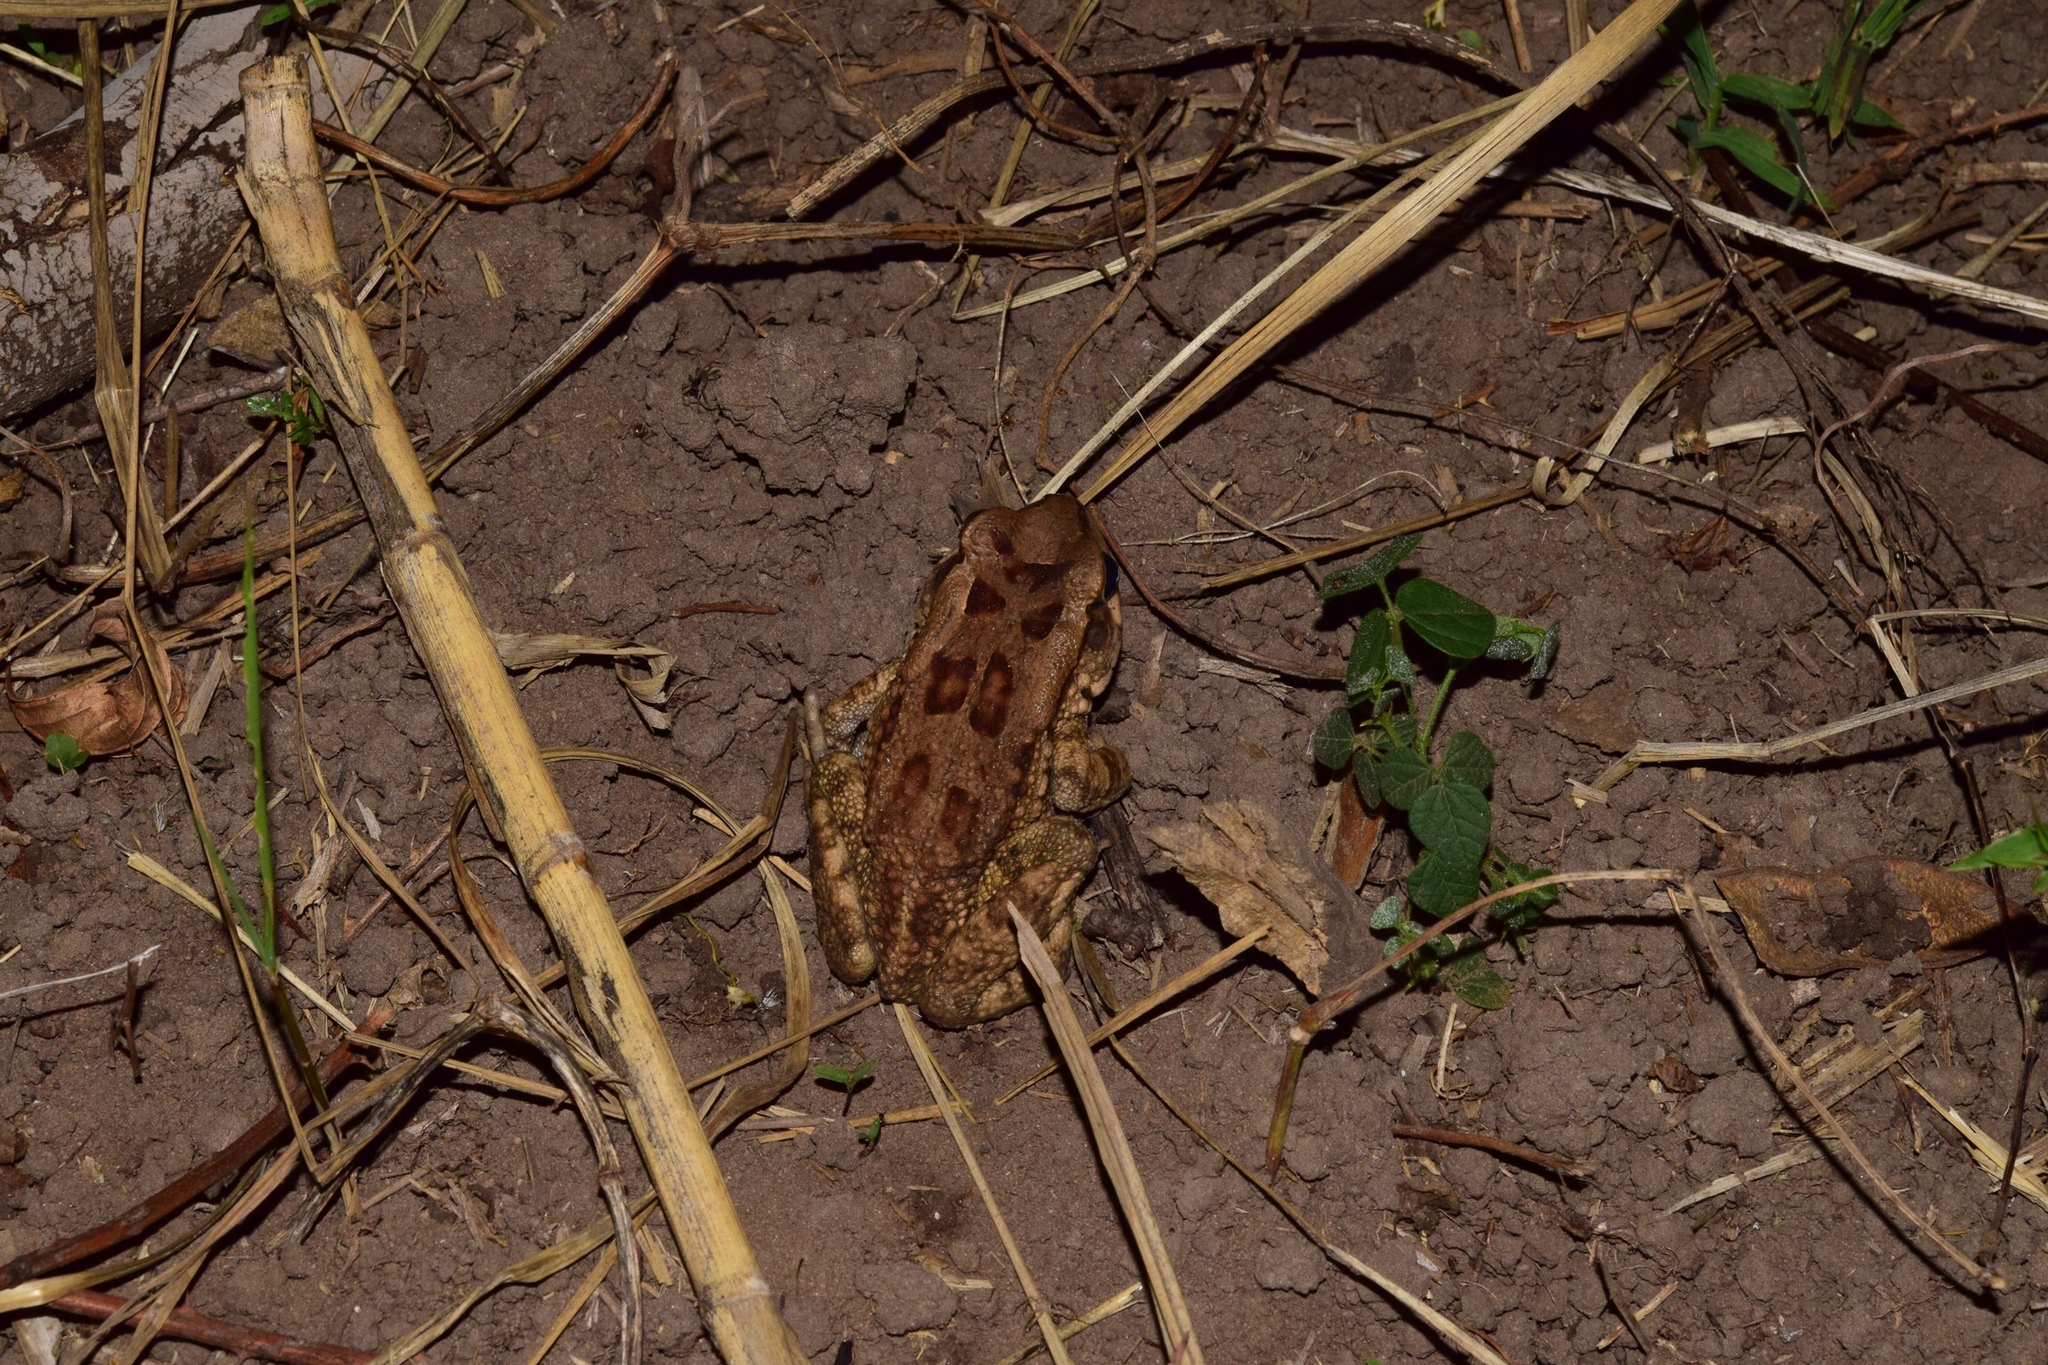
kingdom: Animalia
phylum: Chordata
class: Amphibia
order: Anura
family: Bufonidae
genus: Sclerophrys
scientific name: Sclerophrys capensis
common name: Ranger’s toad
